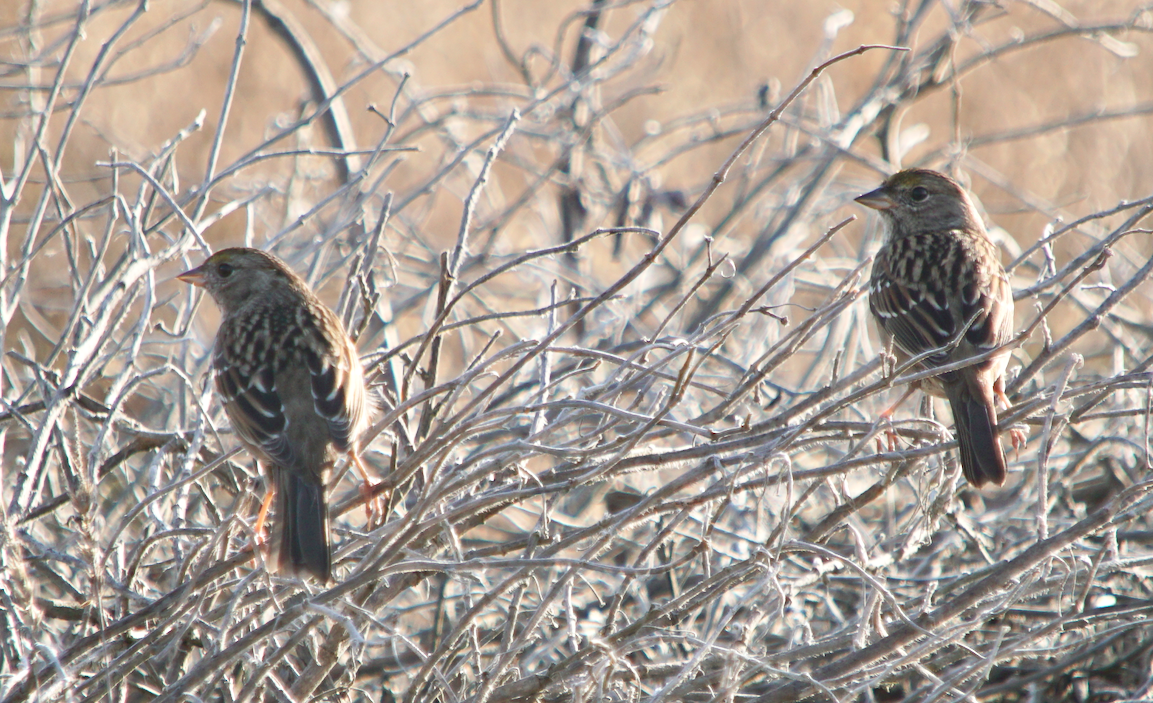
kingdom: Animalia
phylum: Chordata
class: Aves
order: Passeriformes
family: Passerellidae
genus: Zonotrichia
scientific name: Zonotrichia atricapilla
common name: Golden-crowned sparrow
